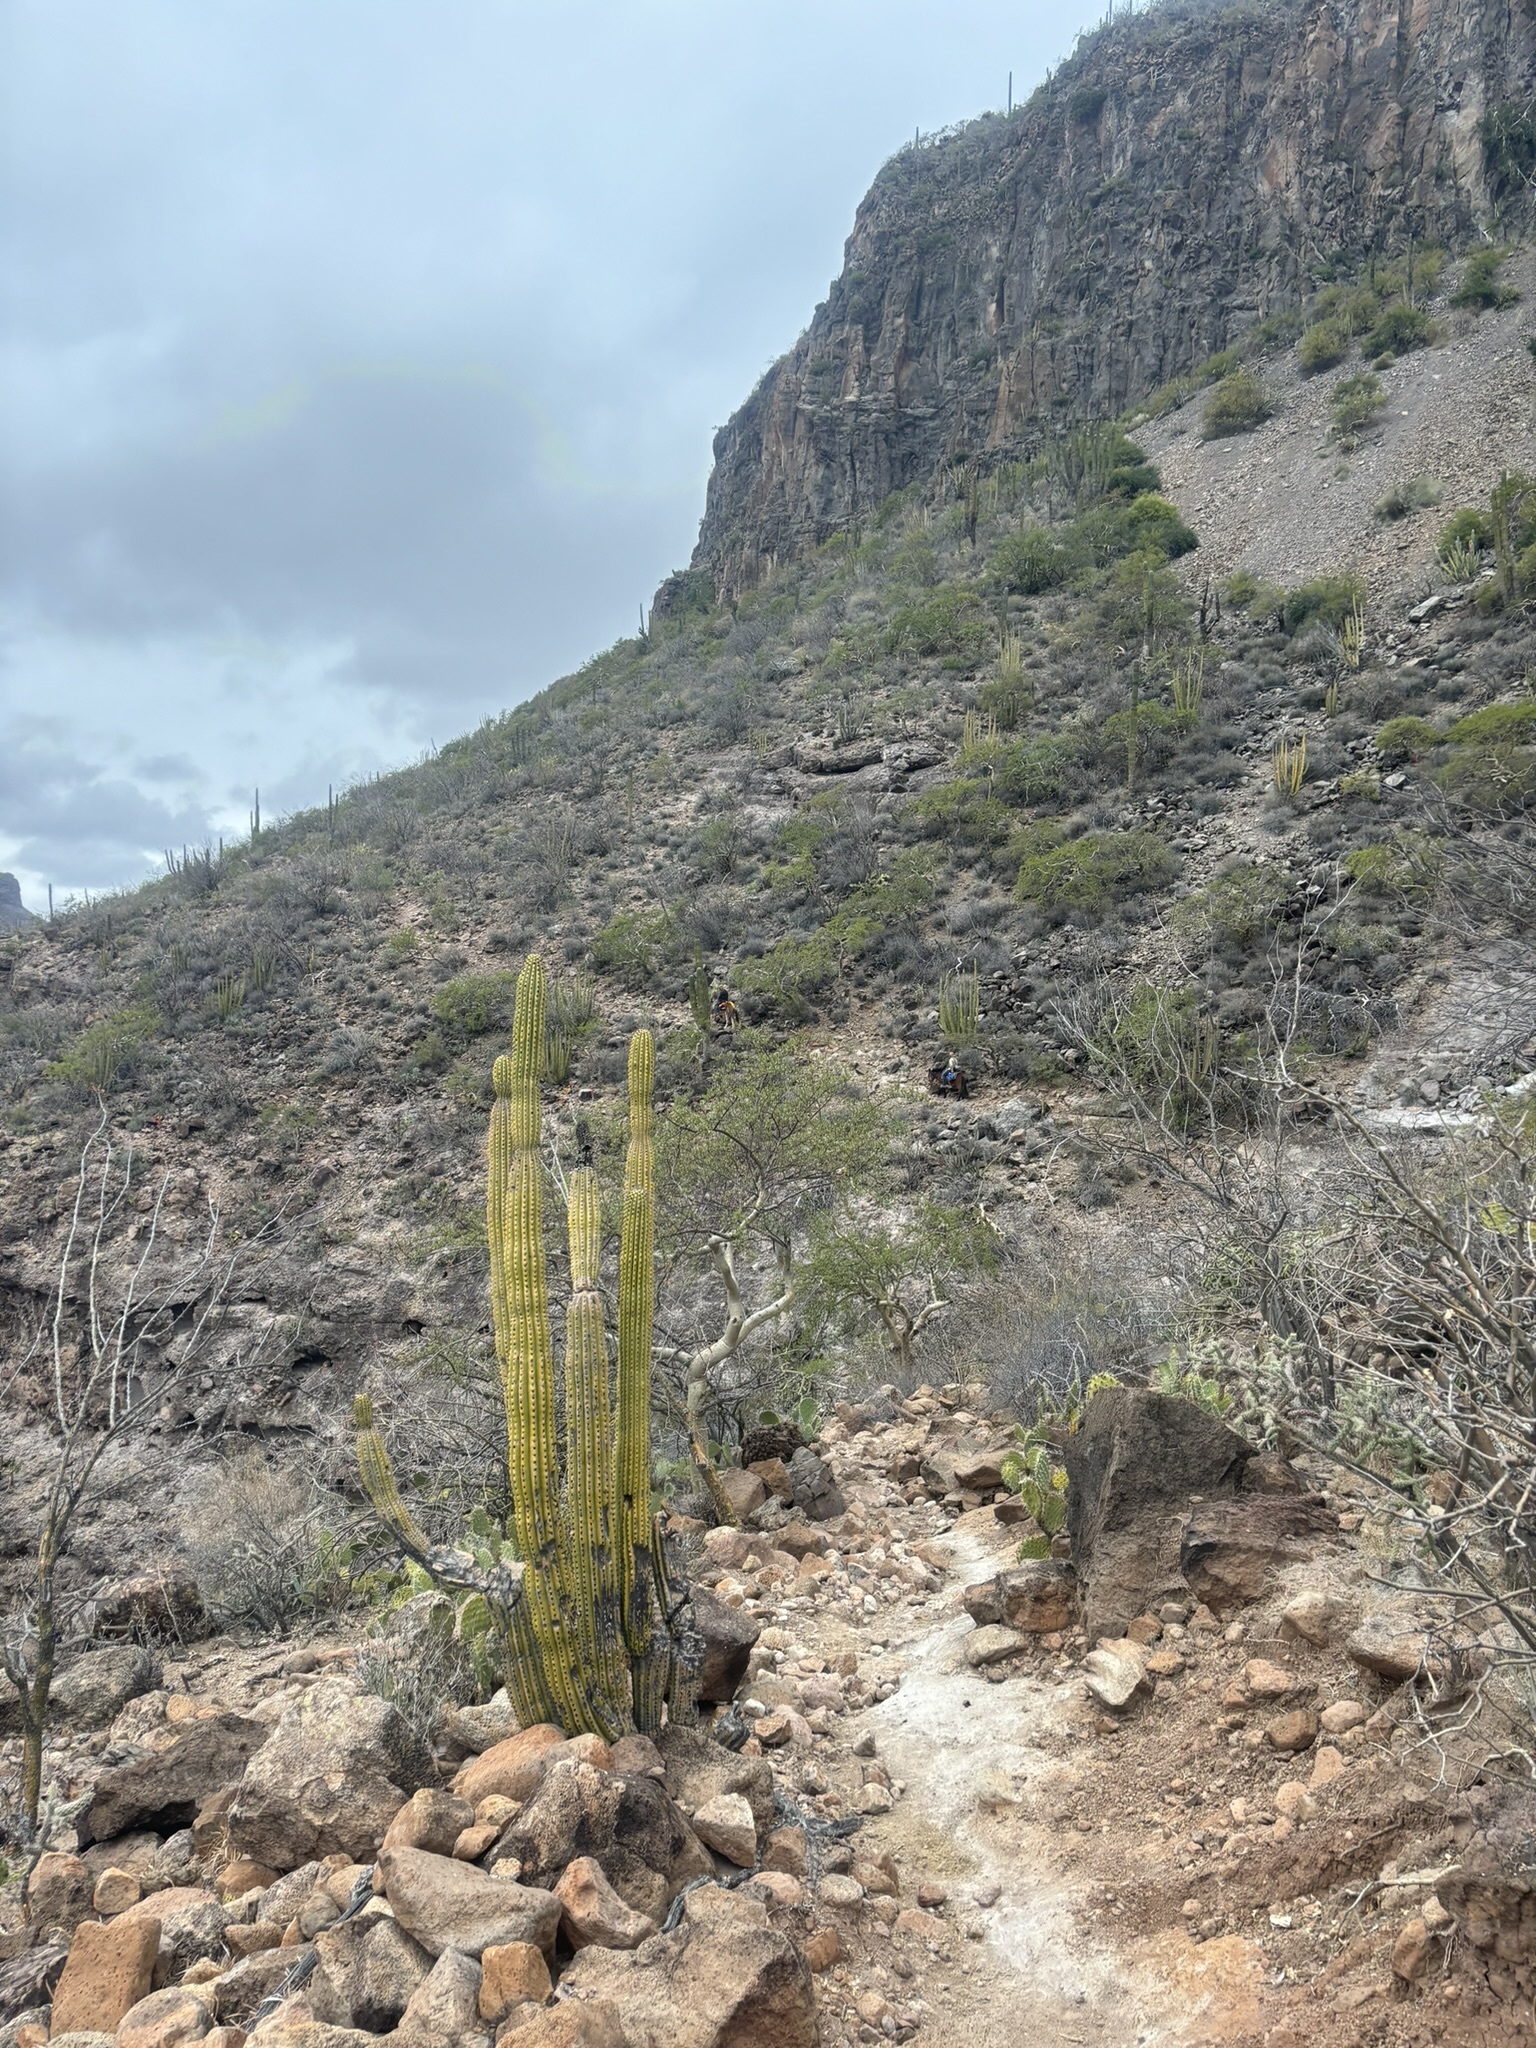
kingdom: Plantae
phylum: Tracheophyta
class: Magnoliopsida
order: Caryophyllales
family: Cactaceae
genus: Stenocereus
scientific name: Stenocereus thurberi
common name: Organ pipe cactus
